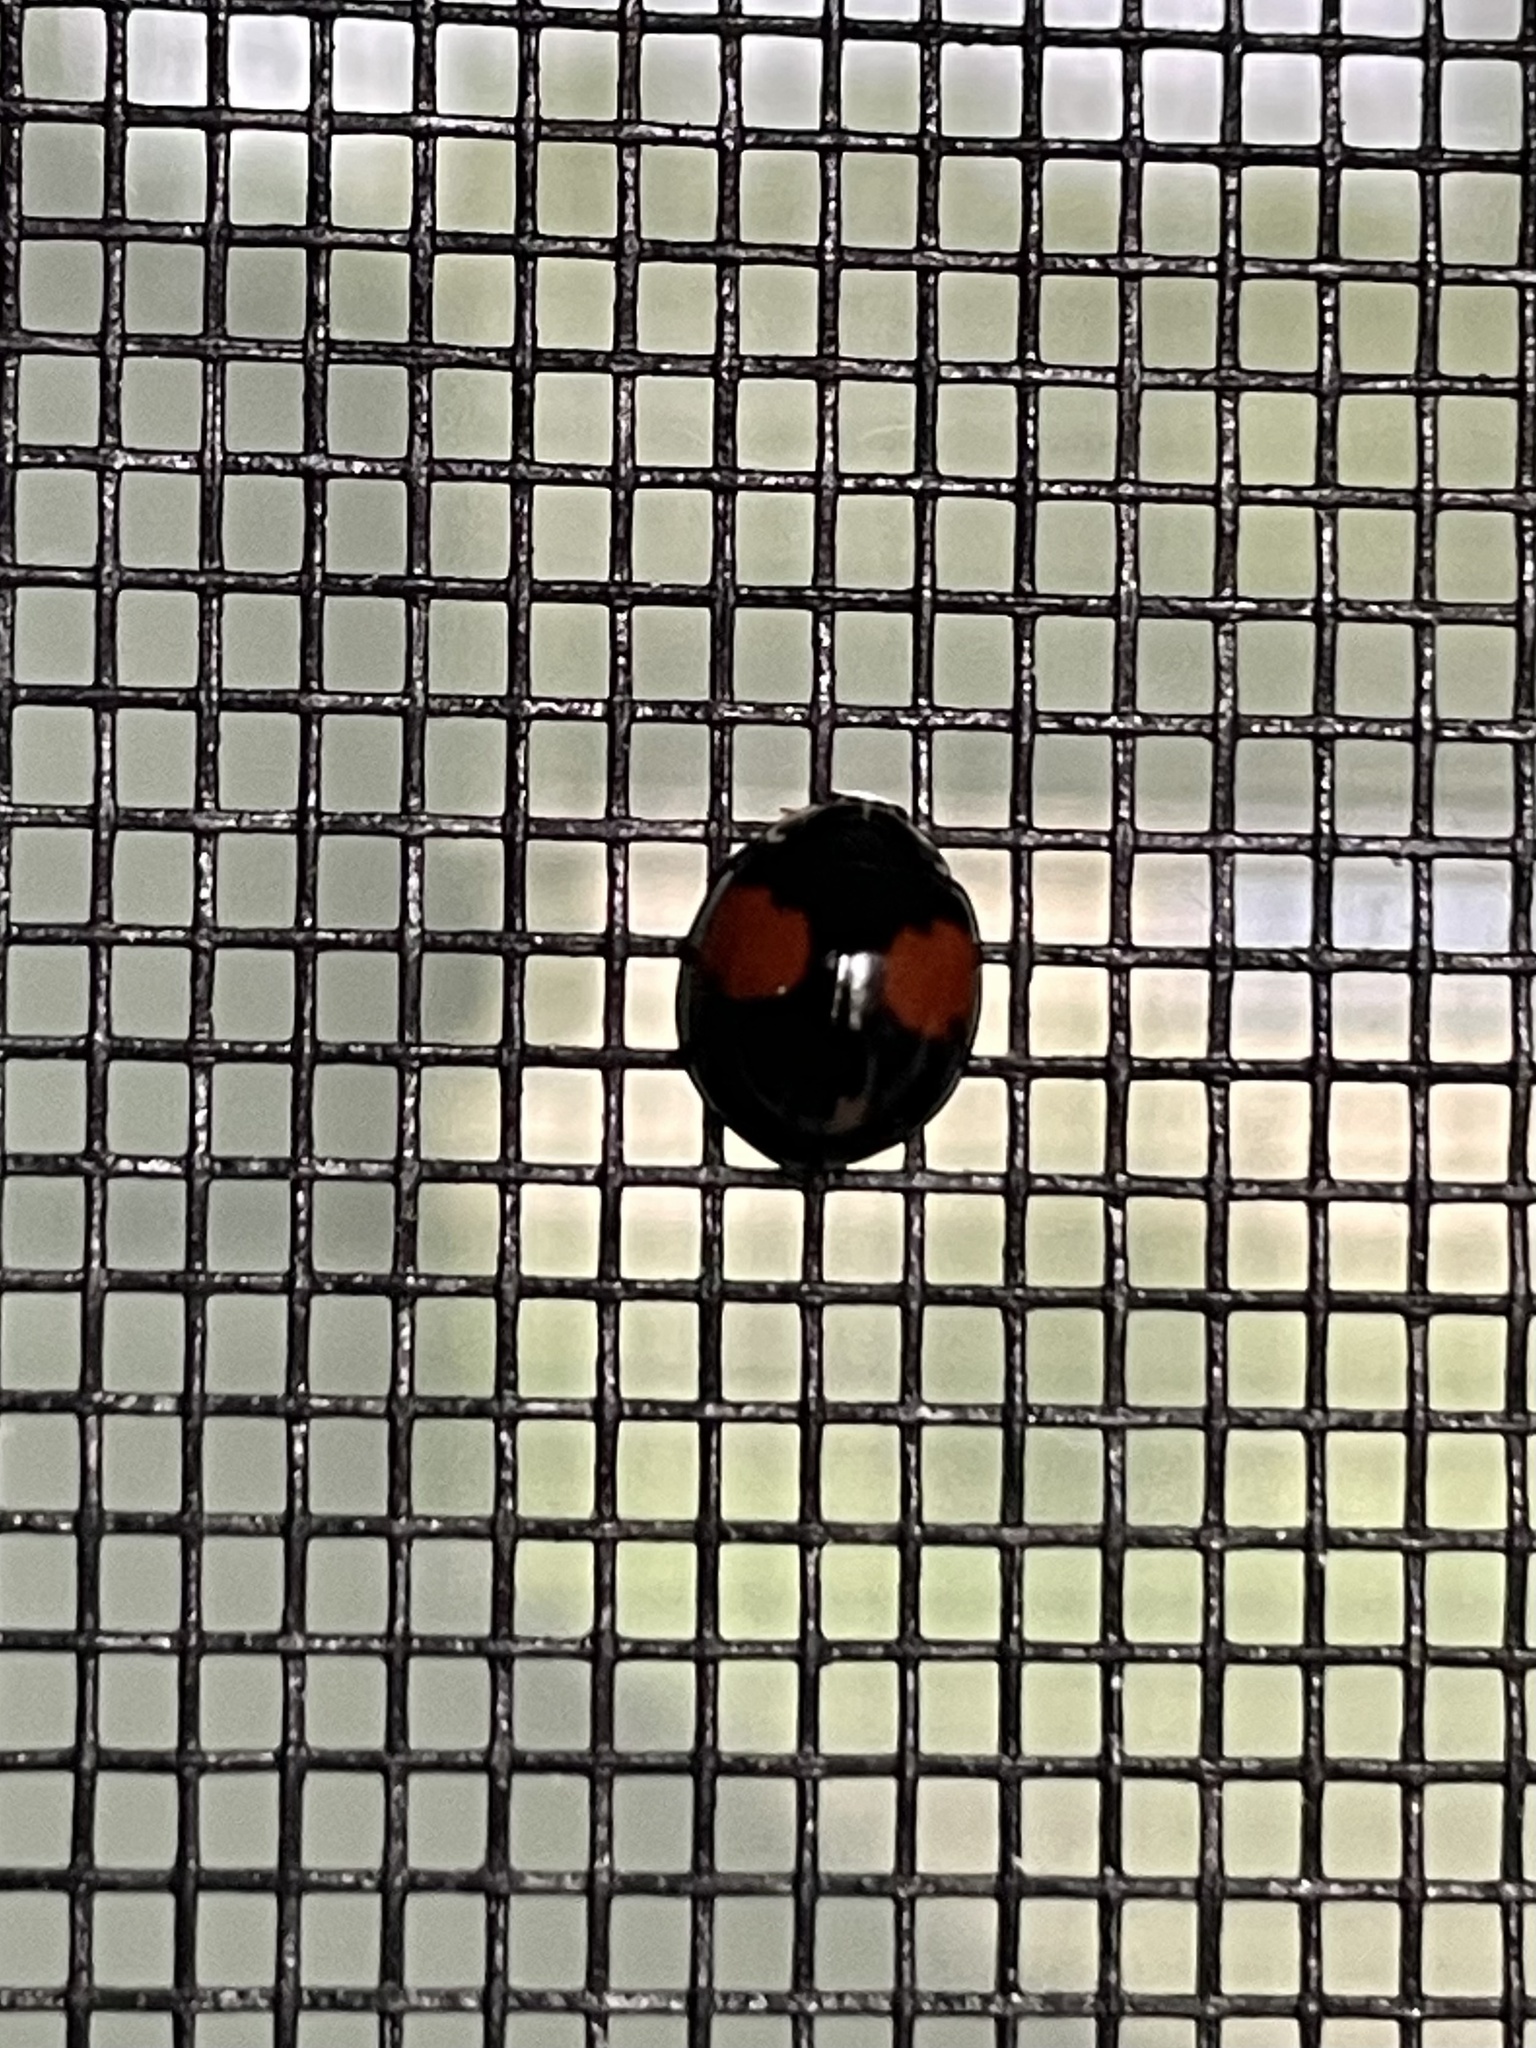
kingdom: Animalia
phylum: Arthropoda
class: Insecta
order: Coleoptera
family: Coccinellidae
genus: Olla
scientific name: Olla v-nigrum
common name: Ashy gray lady beetle
